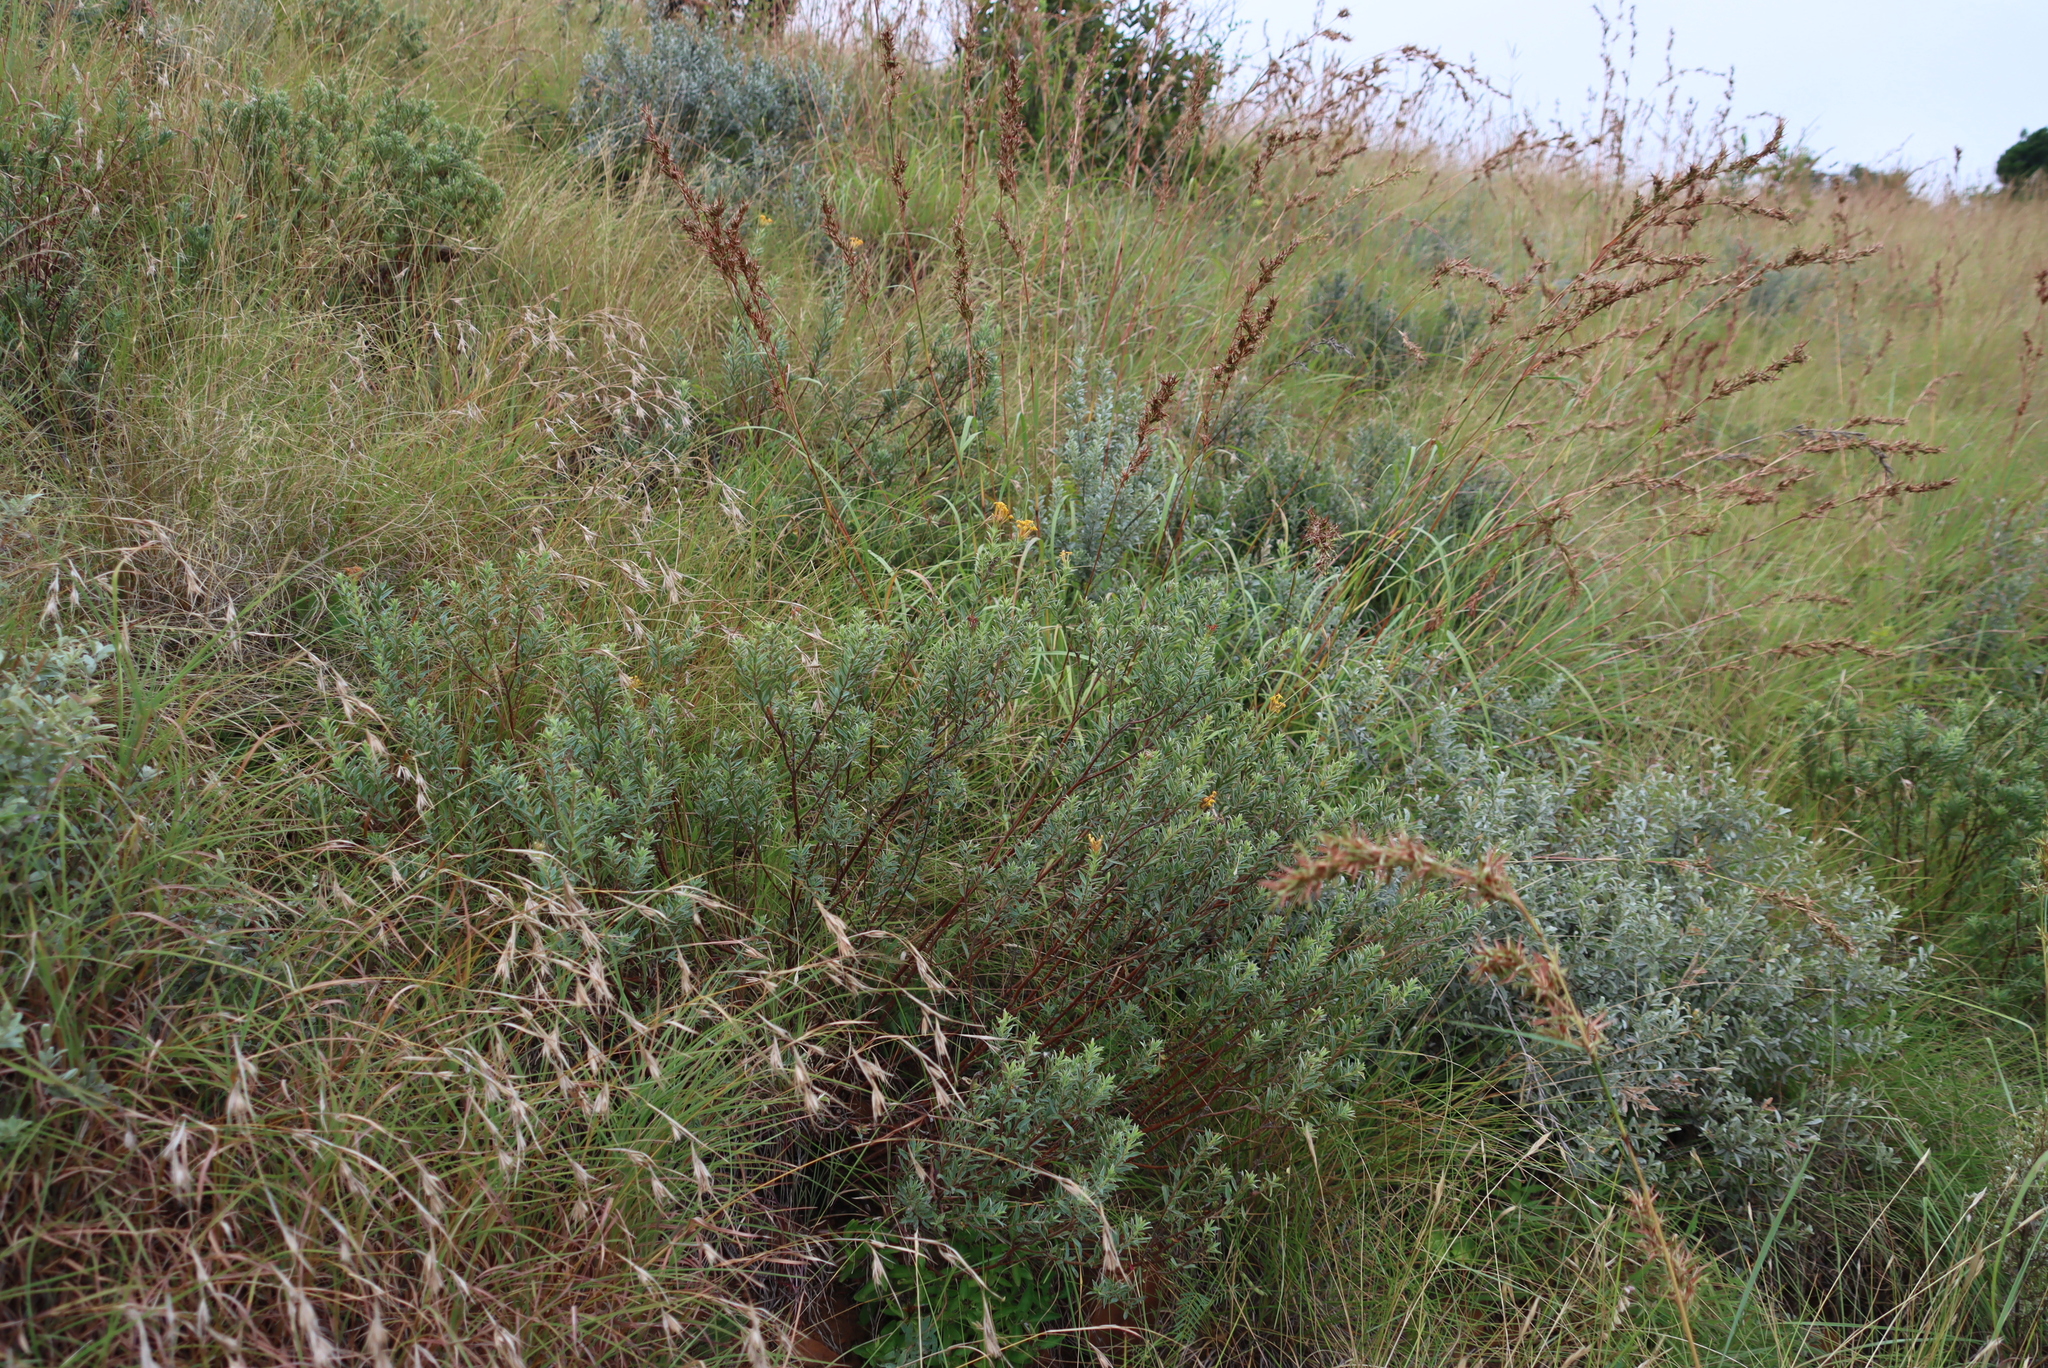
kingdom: Plantae
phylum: Tracheophyta
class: Liliopsida
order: Poales
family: Poaceae
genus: Themeda
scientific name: Themeda triandra
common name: Kangaroo grass
